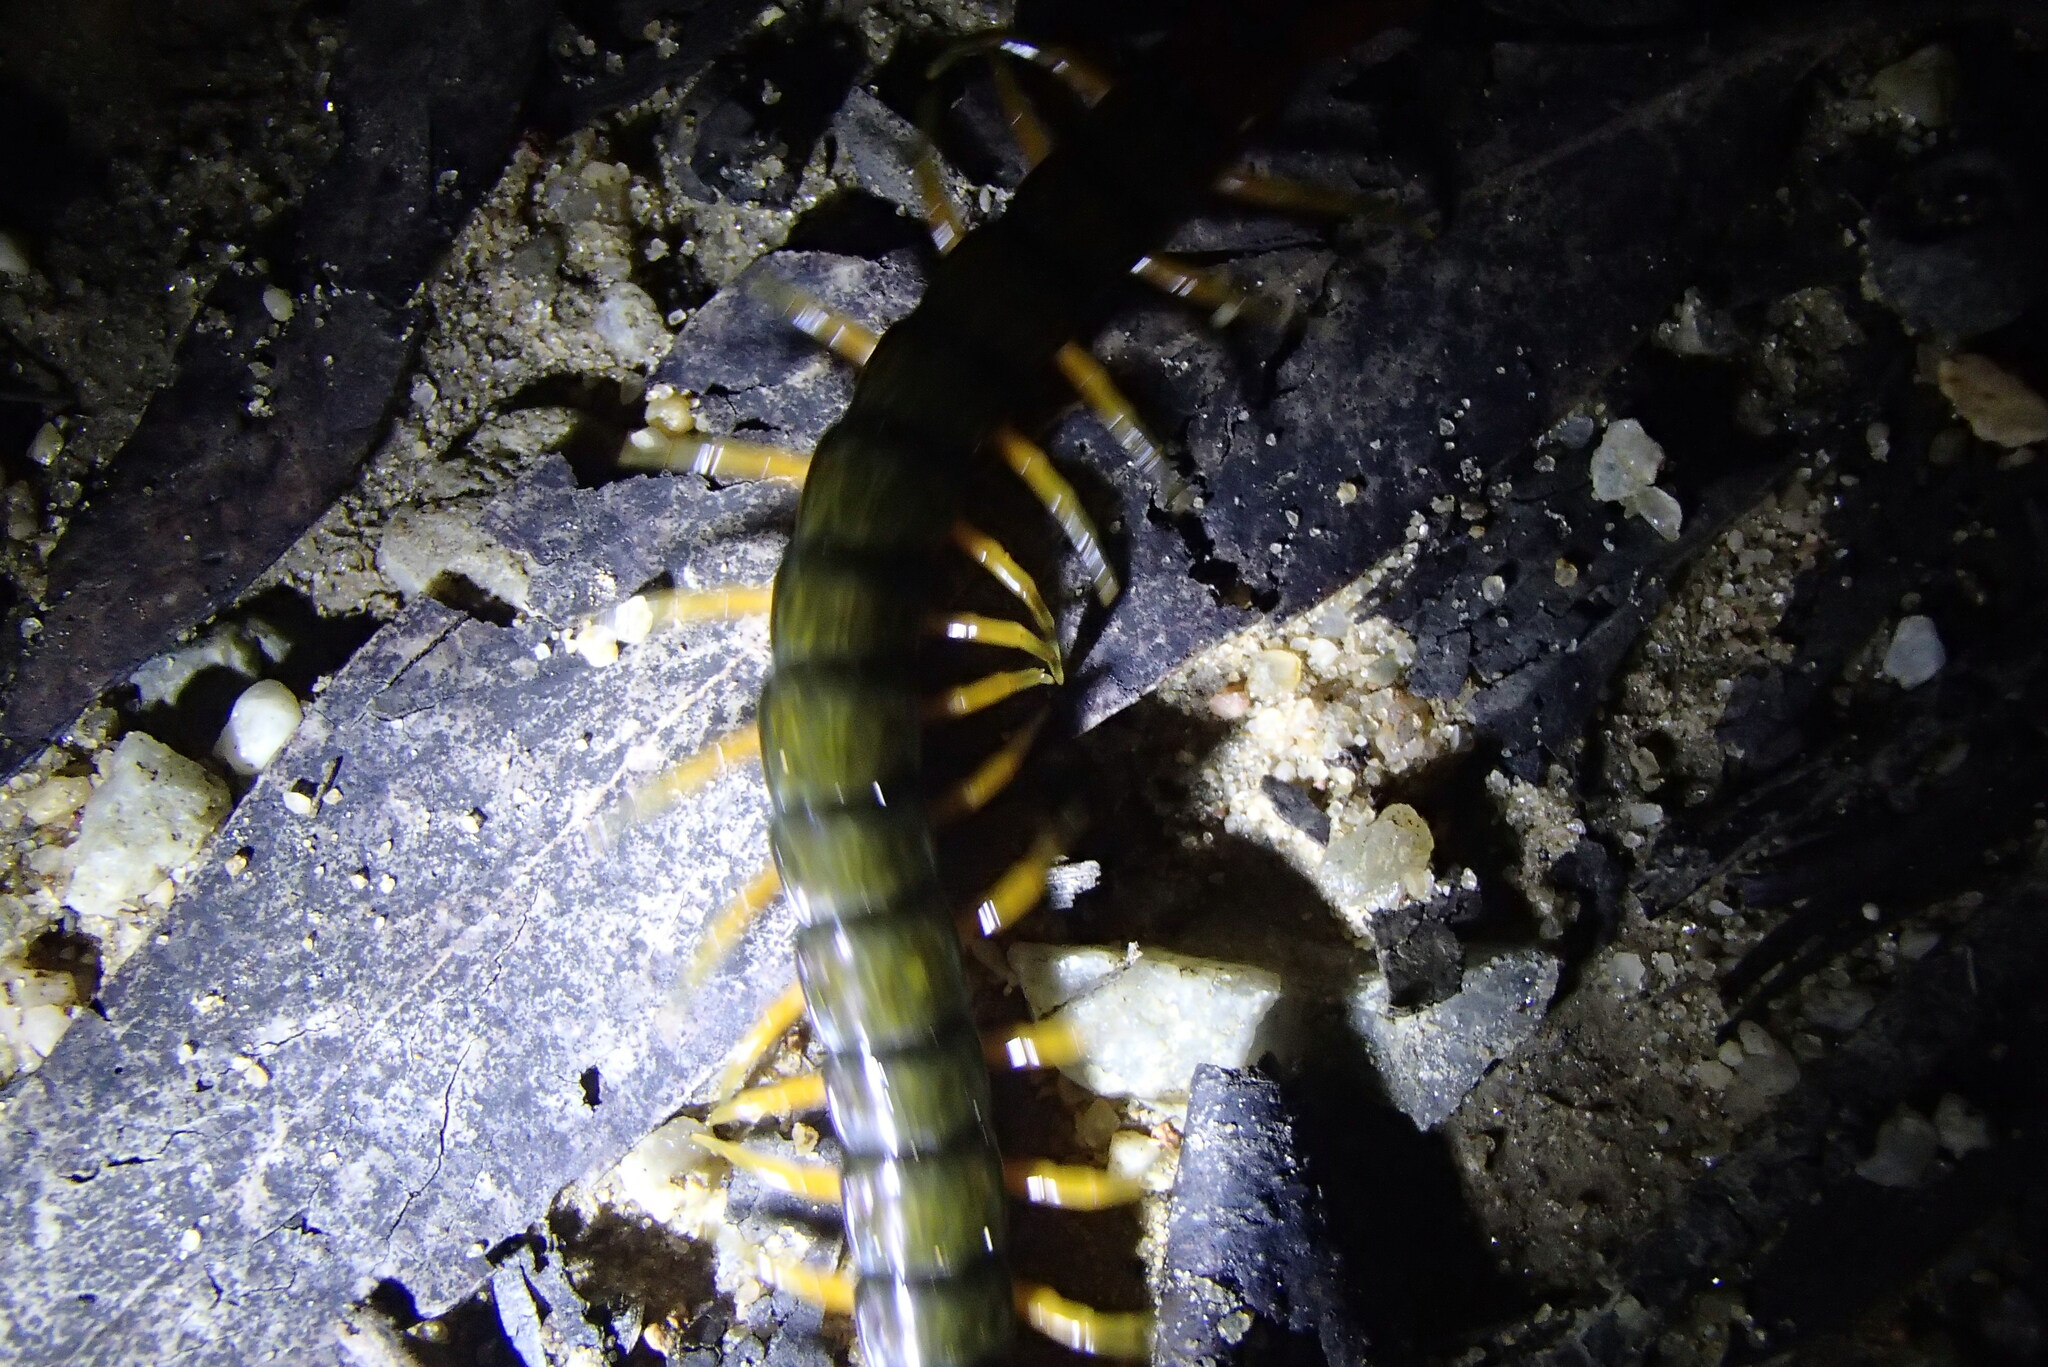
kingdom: Animalia
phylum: Arthropoda
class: Chilopoda
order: Scolopendromorpha
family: Scolopendridae
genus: Cormocephalus
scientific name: Cormocephalus westwoodi
